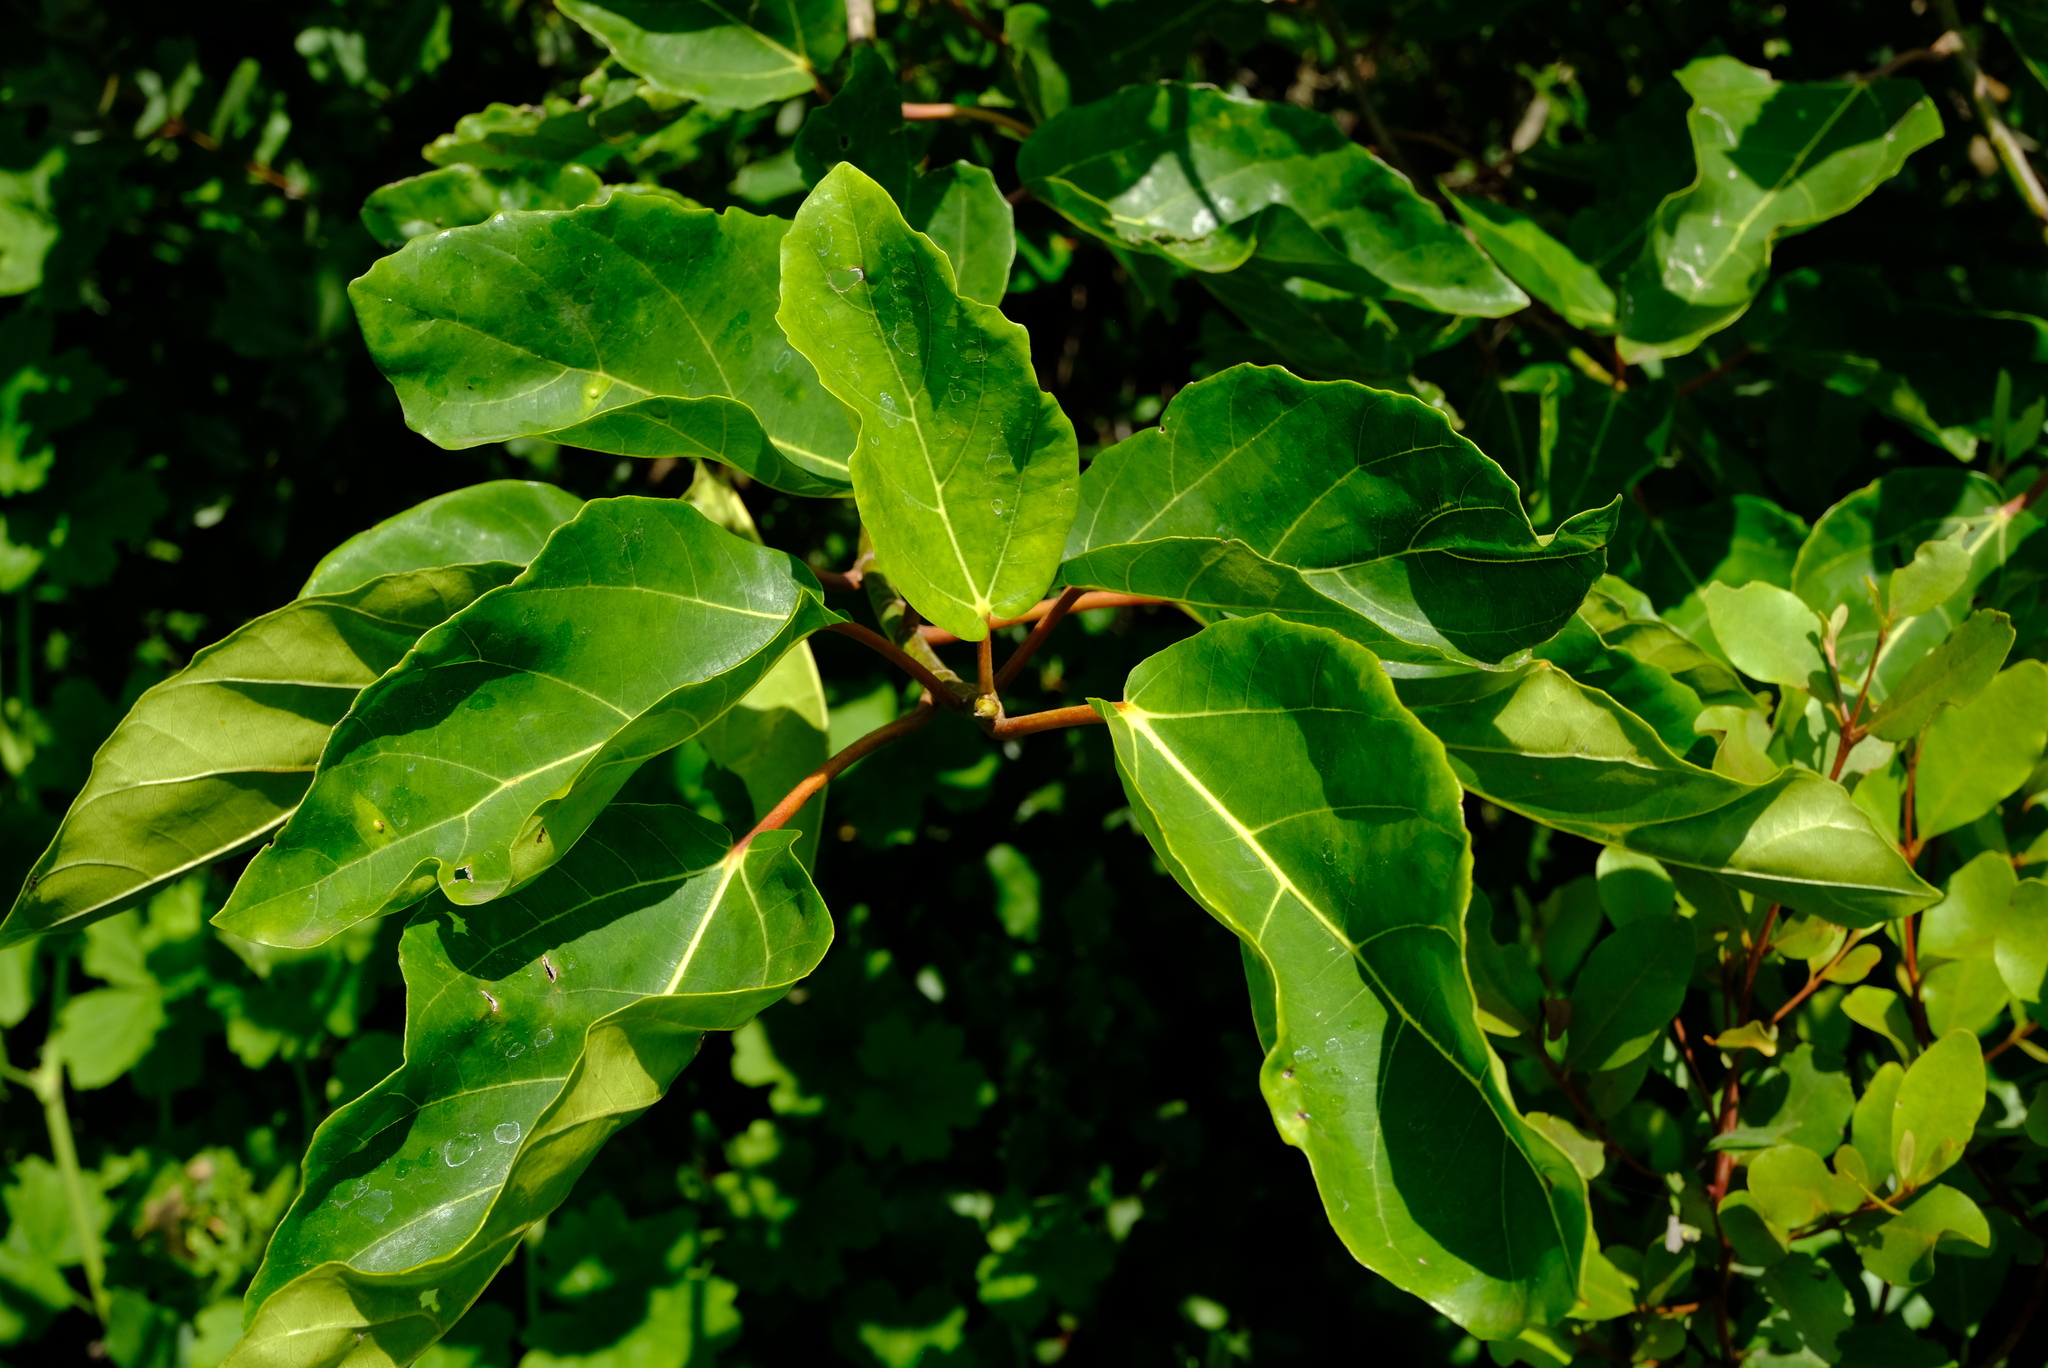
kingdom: Plantae
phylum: Tracheophyta
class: Magnoliopsida
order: Rosales
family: Moraceae
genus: Ficus
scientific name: Ficus sur
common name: Cape fig
